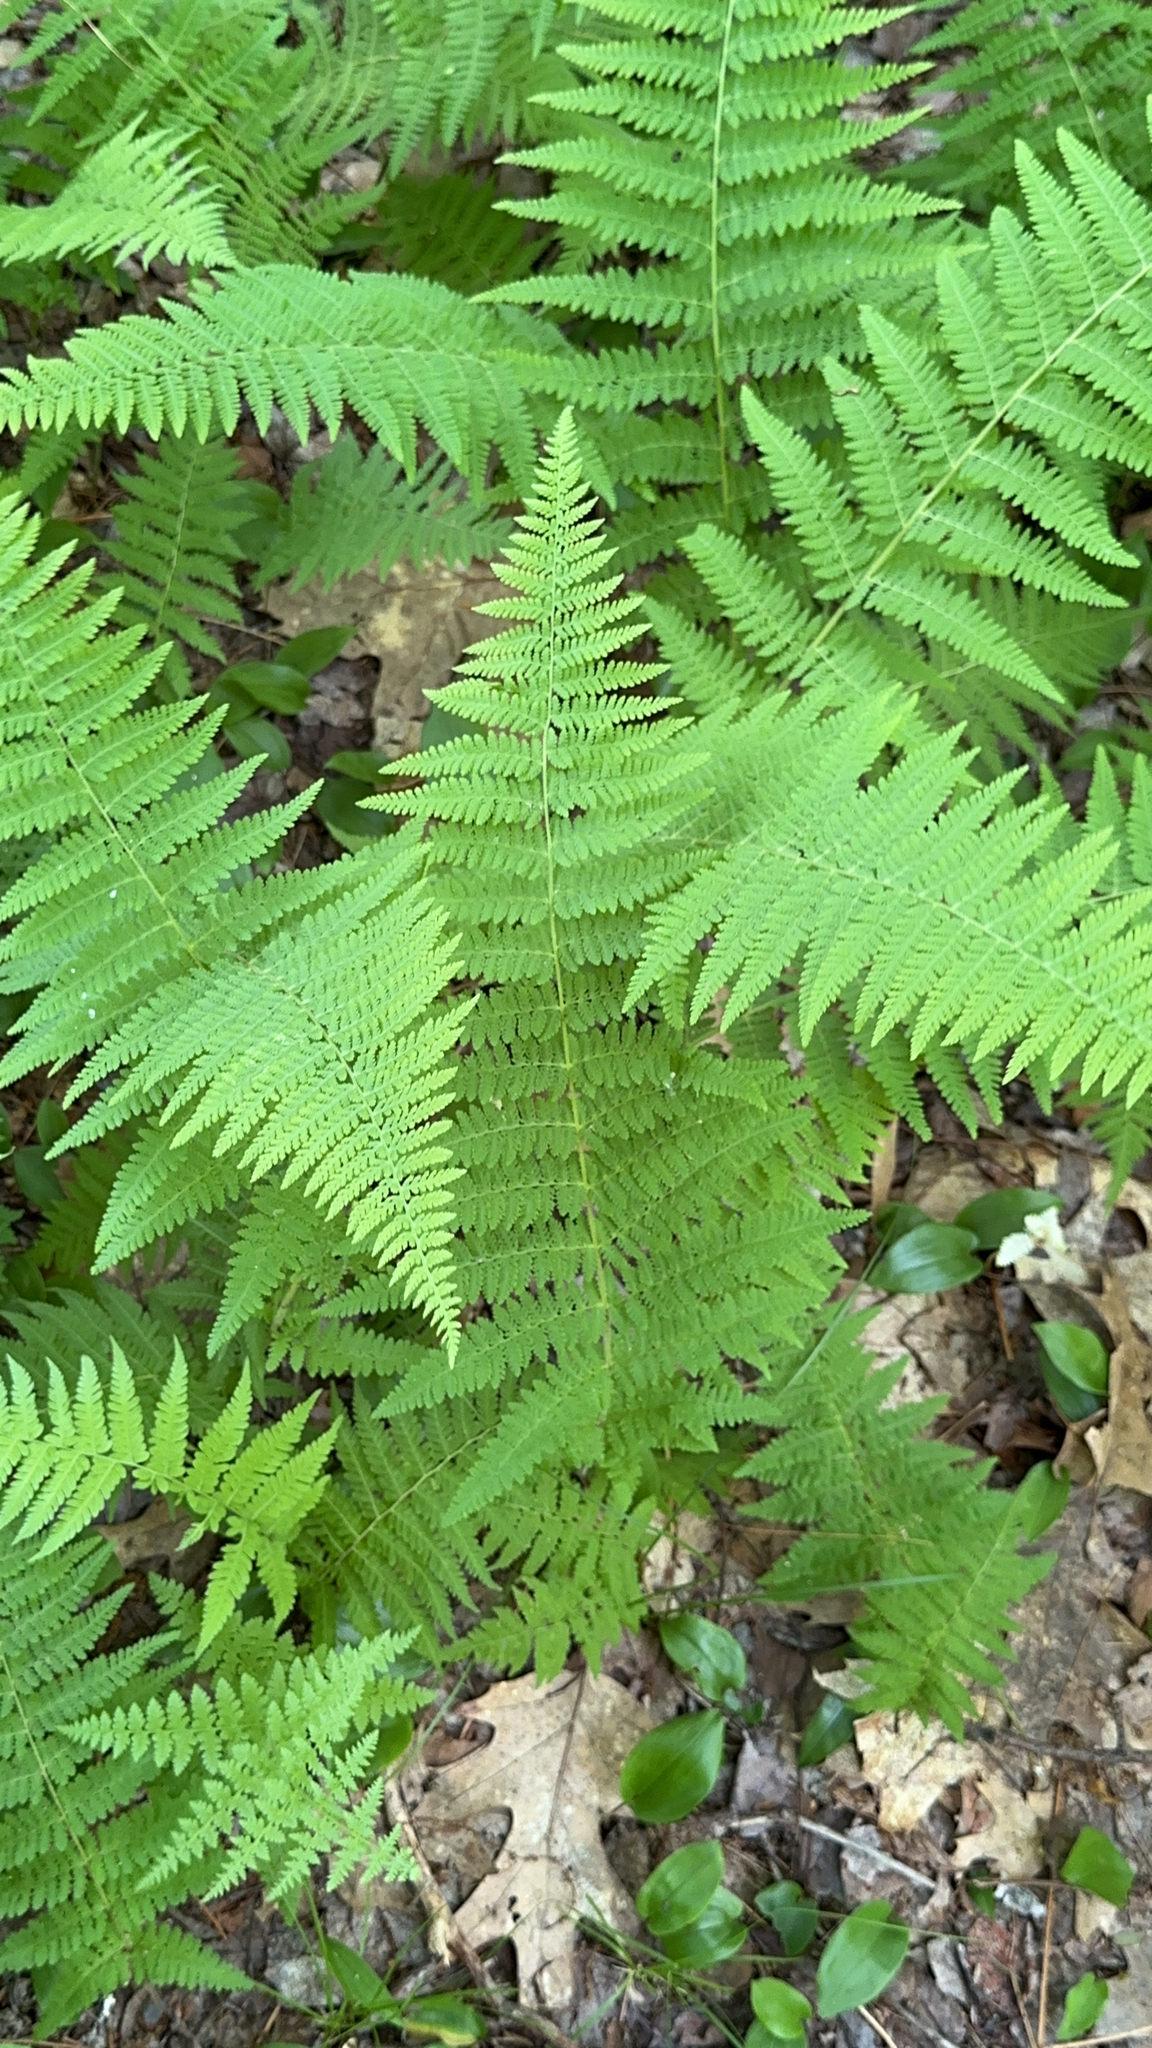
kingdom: Plantae
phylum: Tracheophyta
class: Polypodiopsida
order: Polypodiales
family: Dennstaedtiaceae
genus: Sitobolium
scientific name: Sitobolium punctilobum
